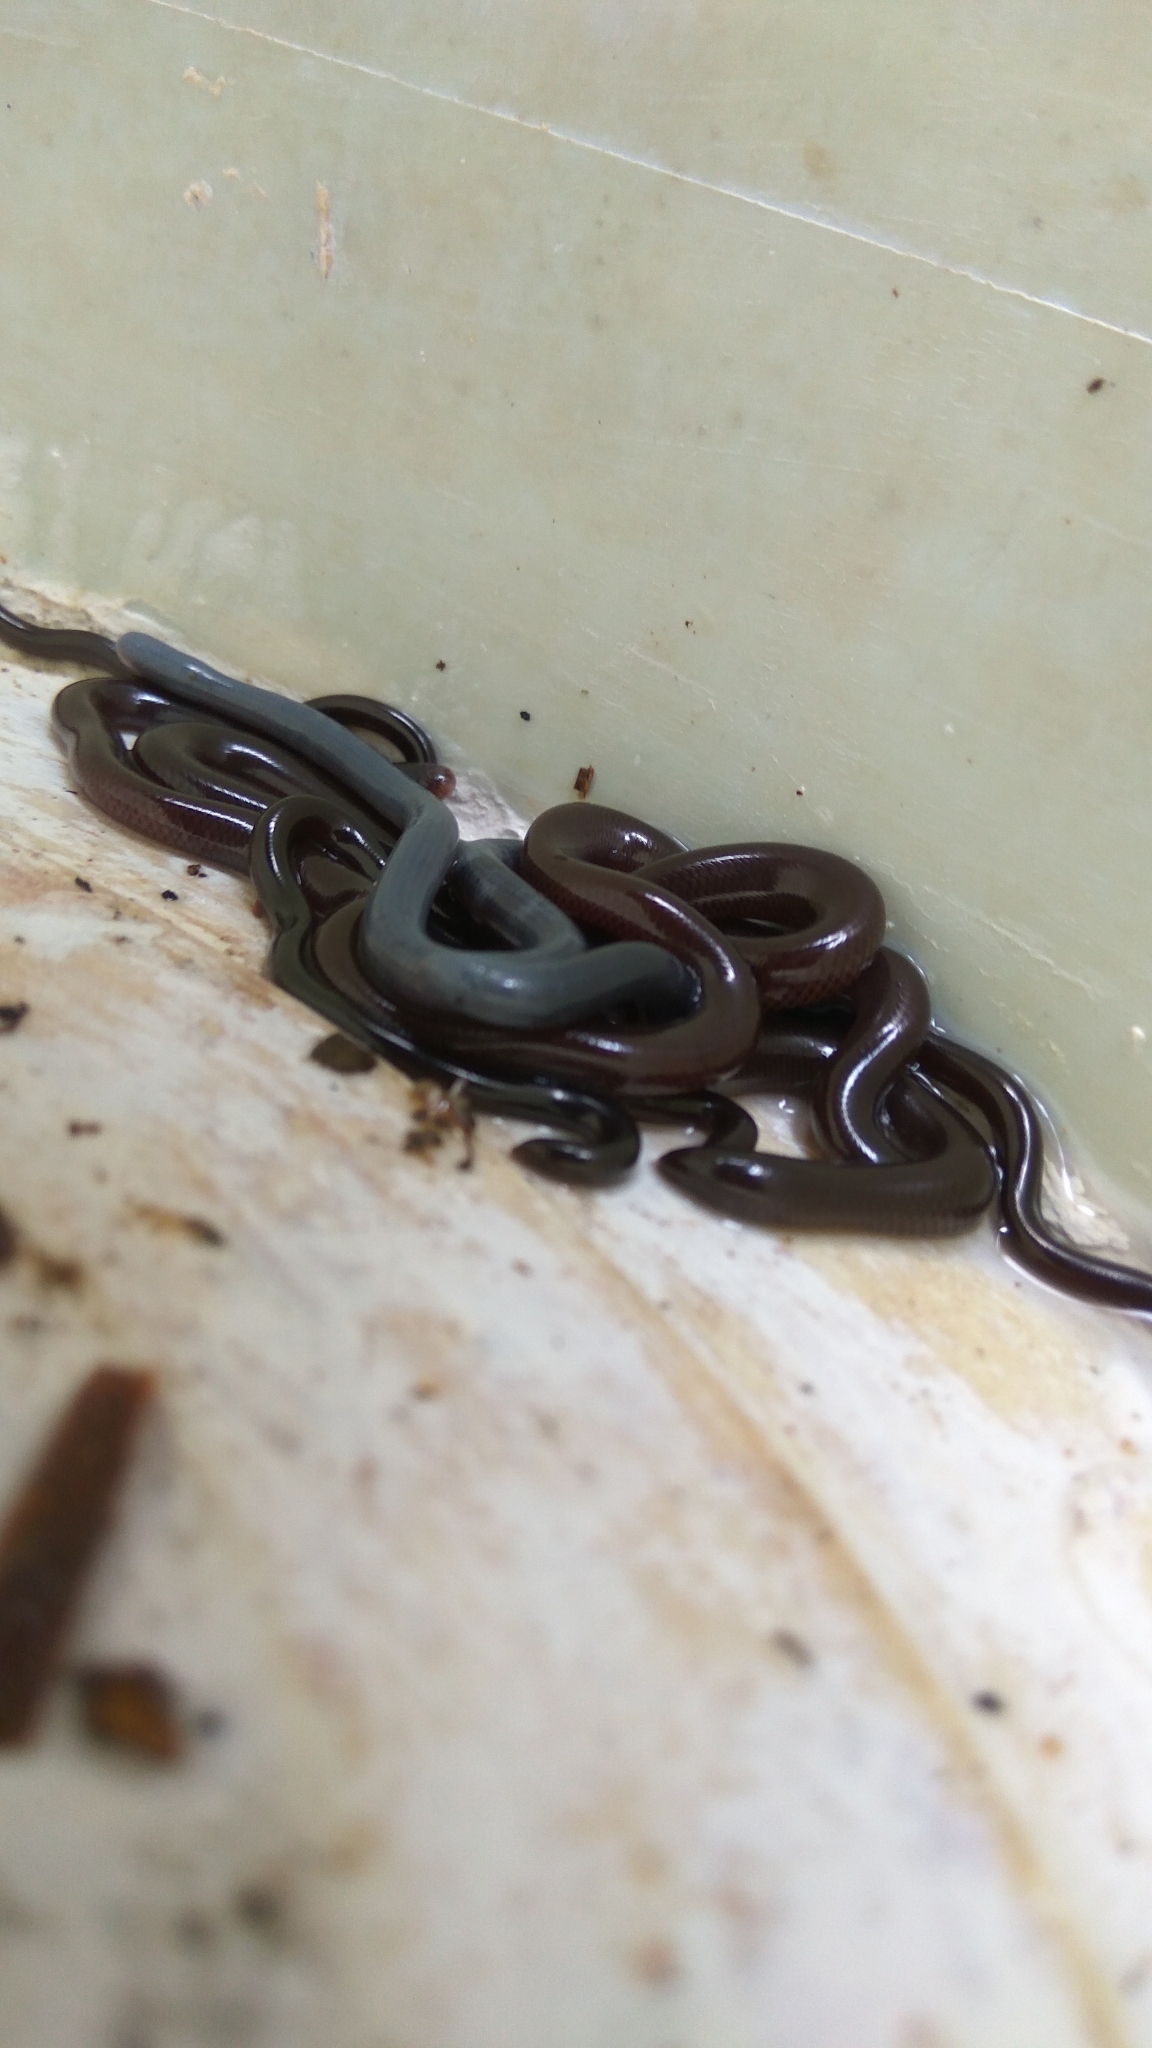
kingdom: Animalia
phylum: Chordata
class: Squamata
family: Typhlopidae
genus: Indotyphlops
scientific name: Indotyphlops braminus
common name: Brahminy blindsnake
